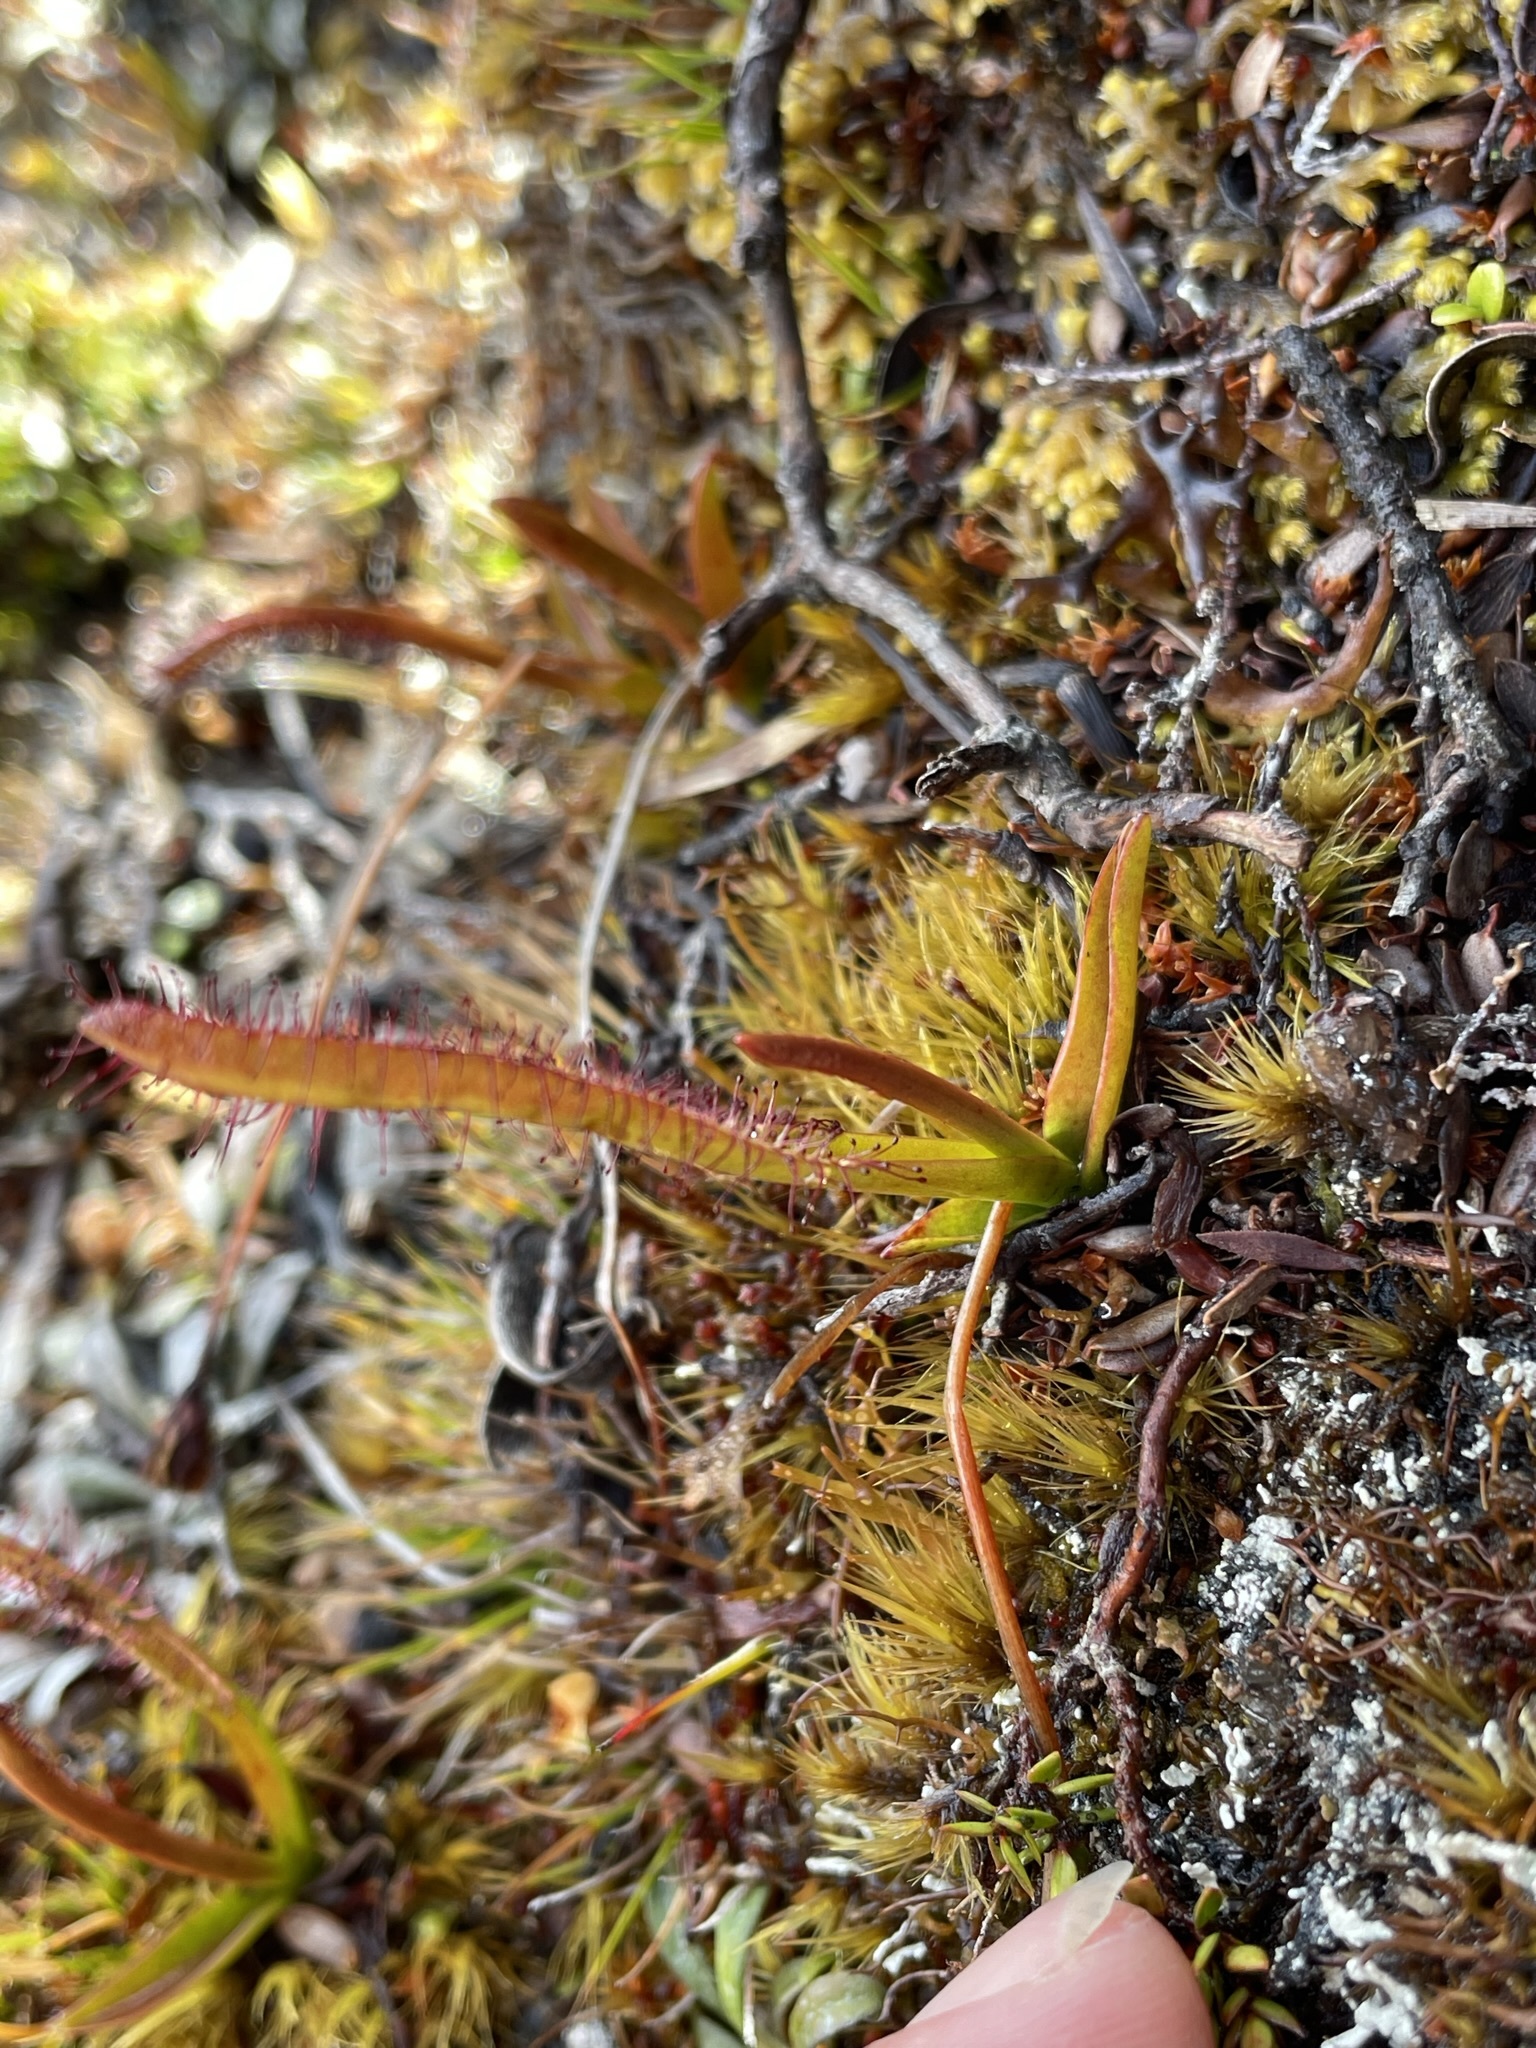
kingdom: Plantae
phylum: Tracheophyta
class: Magnoliopsida
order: Caryophyllales
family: Droseraceae
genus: Drosera
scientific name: Drosera murfetii
